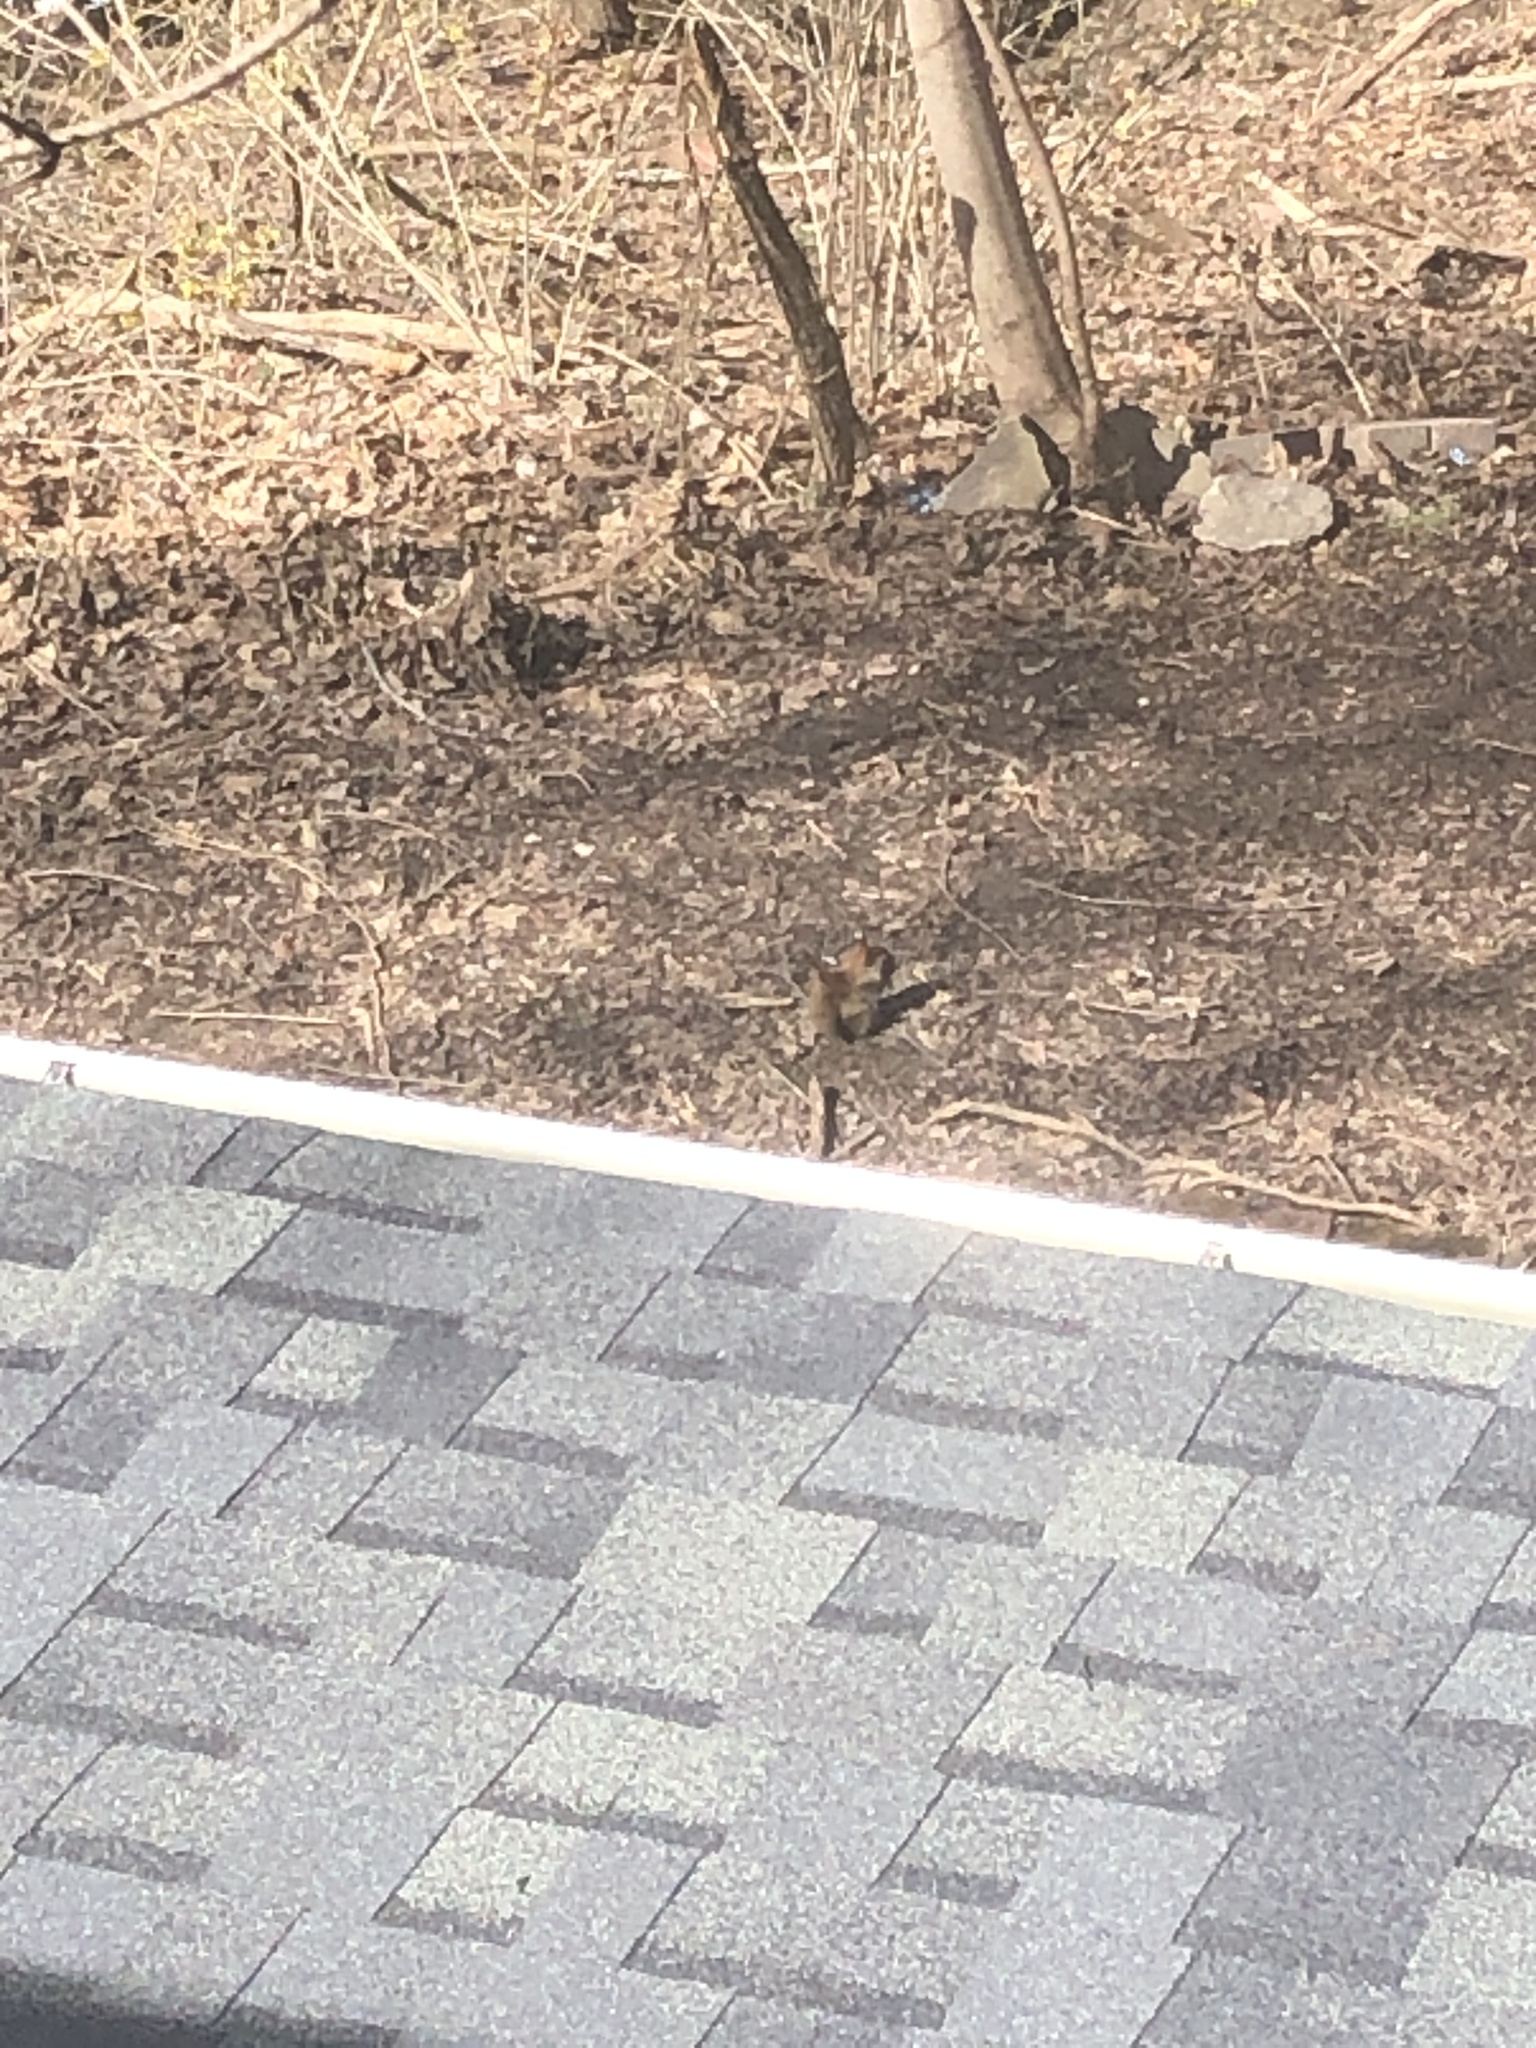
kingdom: Animalia
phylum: Chordata
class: Mammalia
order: Rodentia
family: Sciuridae
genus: Tamiasciurus
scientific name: Tamiasciurus hudsonicus
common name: Red squirrel
